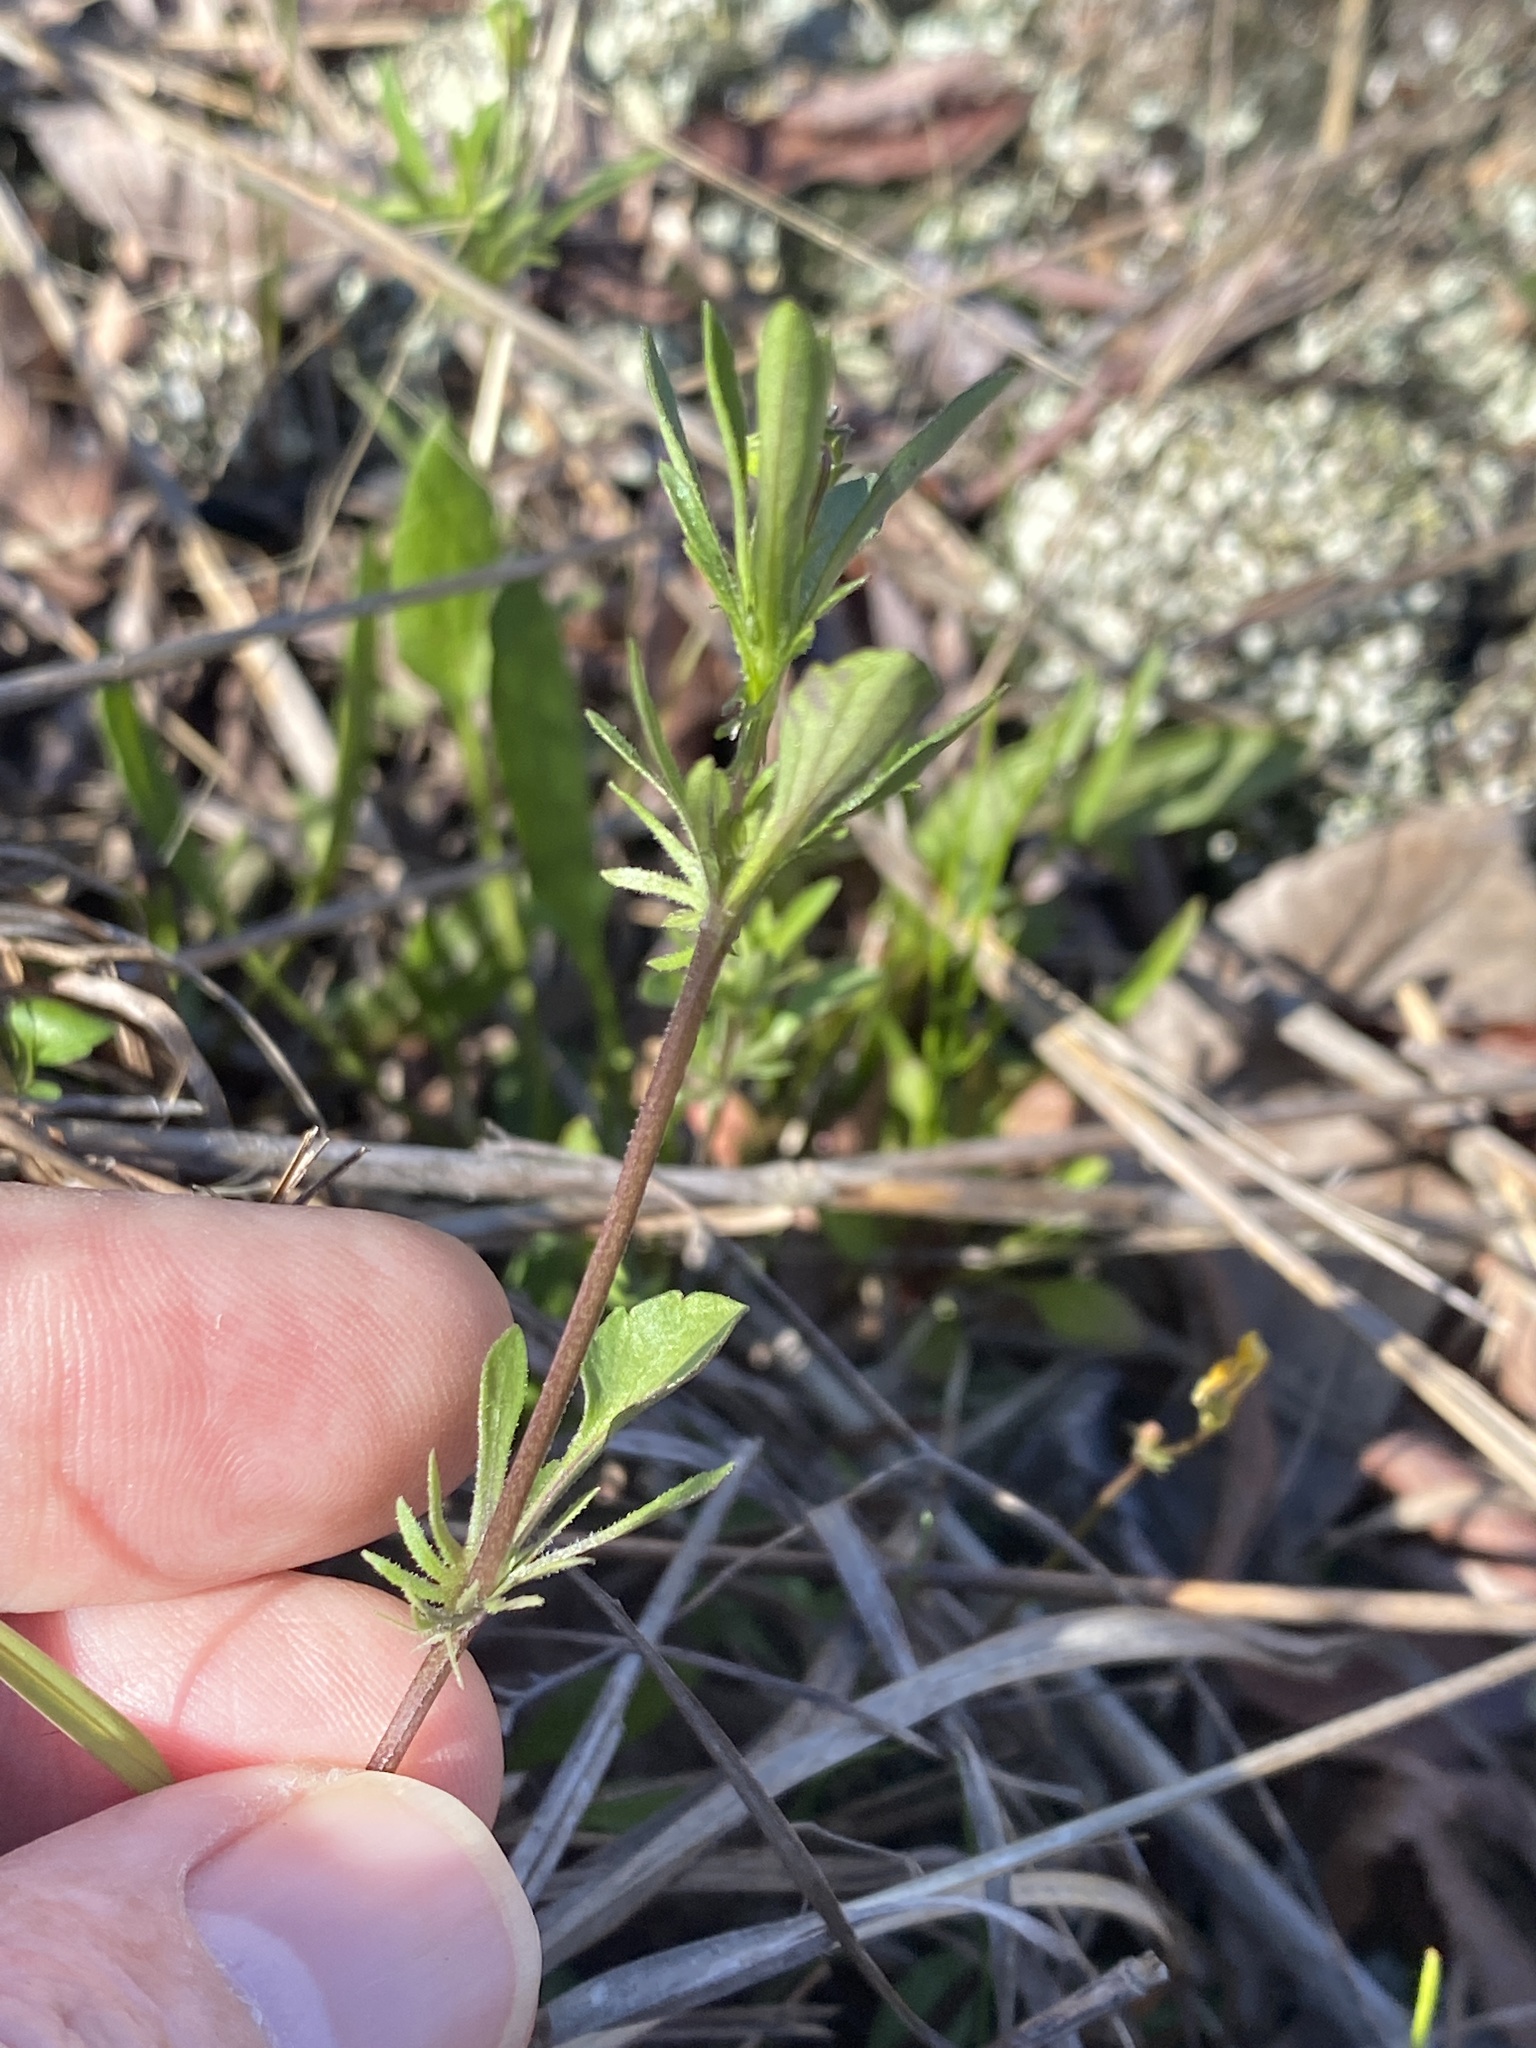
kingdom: Plantae
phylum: Tracheophyta
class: Magnoliopsida
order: Malpighiales
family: Violaceae
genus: Viola
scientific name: Viola rafinesquei
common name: American field pansy
